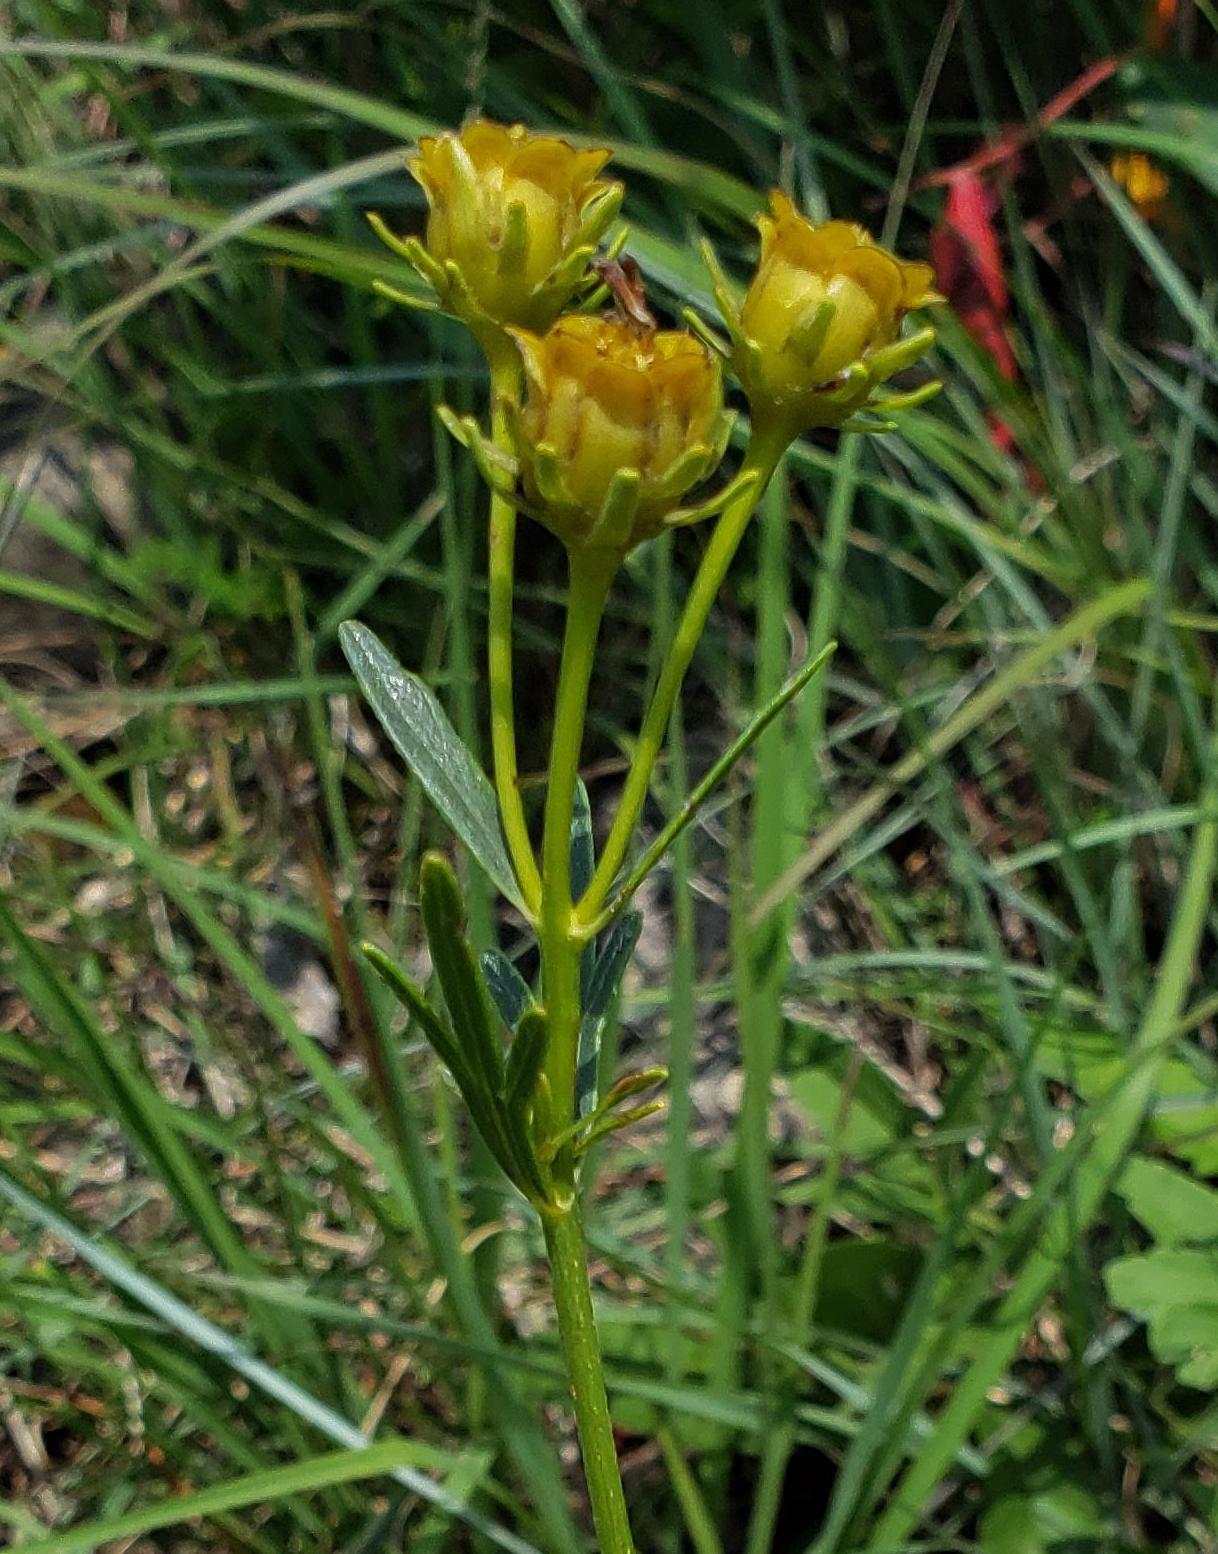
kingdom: Plantae
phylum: Tracheophyta
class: Magnoliopsida
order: Asterales
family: Asteraceae
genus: Coreopsis
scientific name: Coreopsis palmata
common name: Prairie coreopsis
